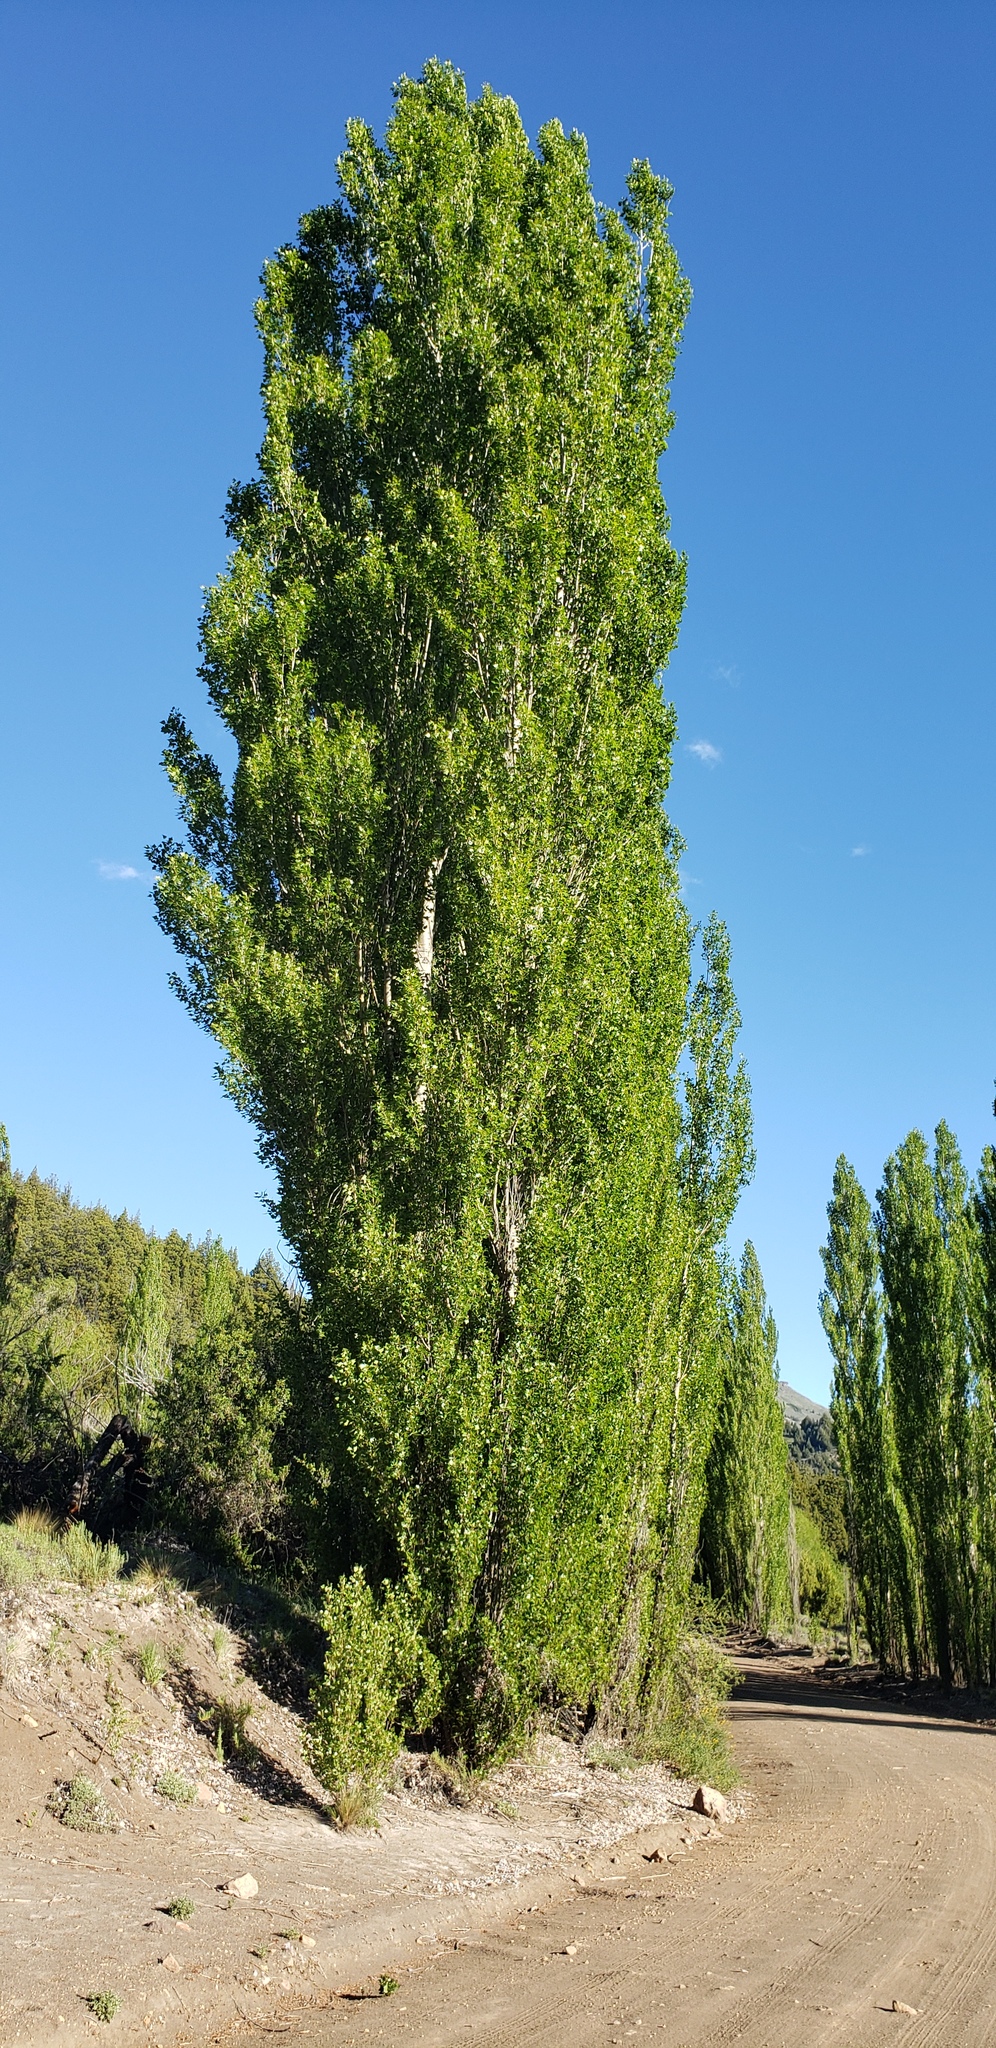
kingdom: Plantae
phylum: Tracheophyta
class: Magnoliopsida
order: Malpighiales
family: Salicaceae
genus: Populus
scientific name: Populus nigra
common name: Black poplar
